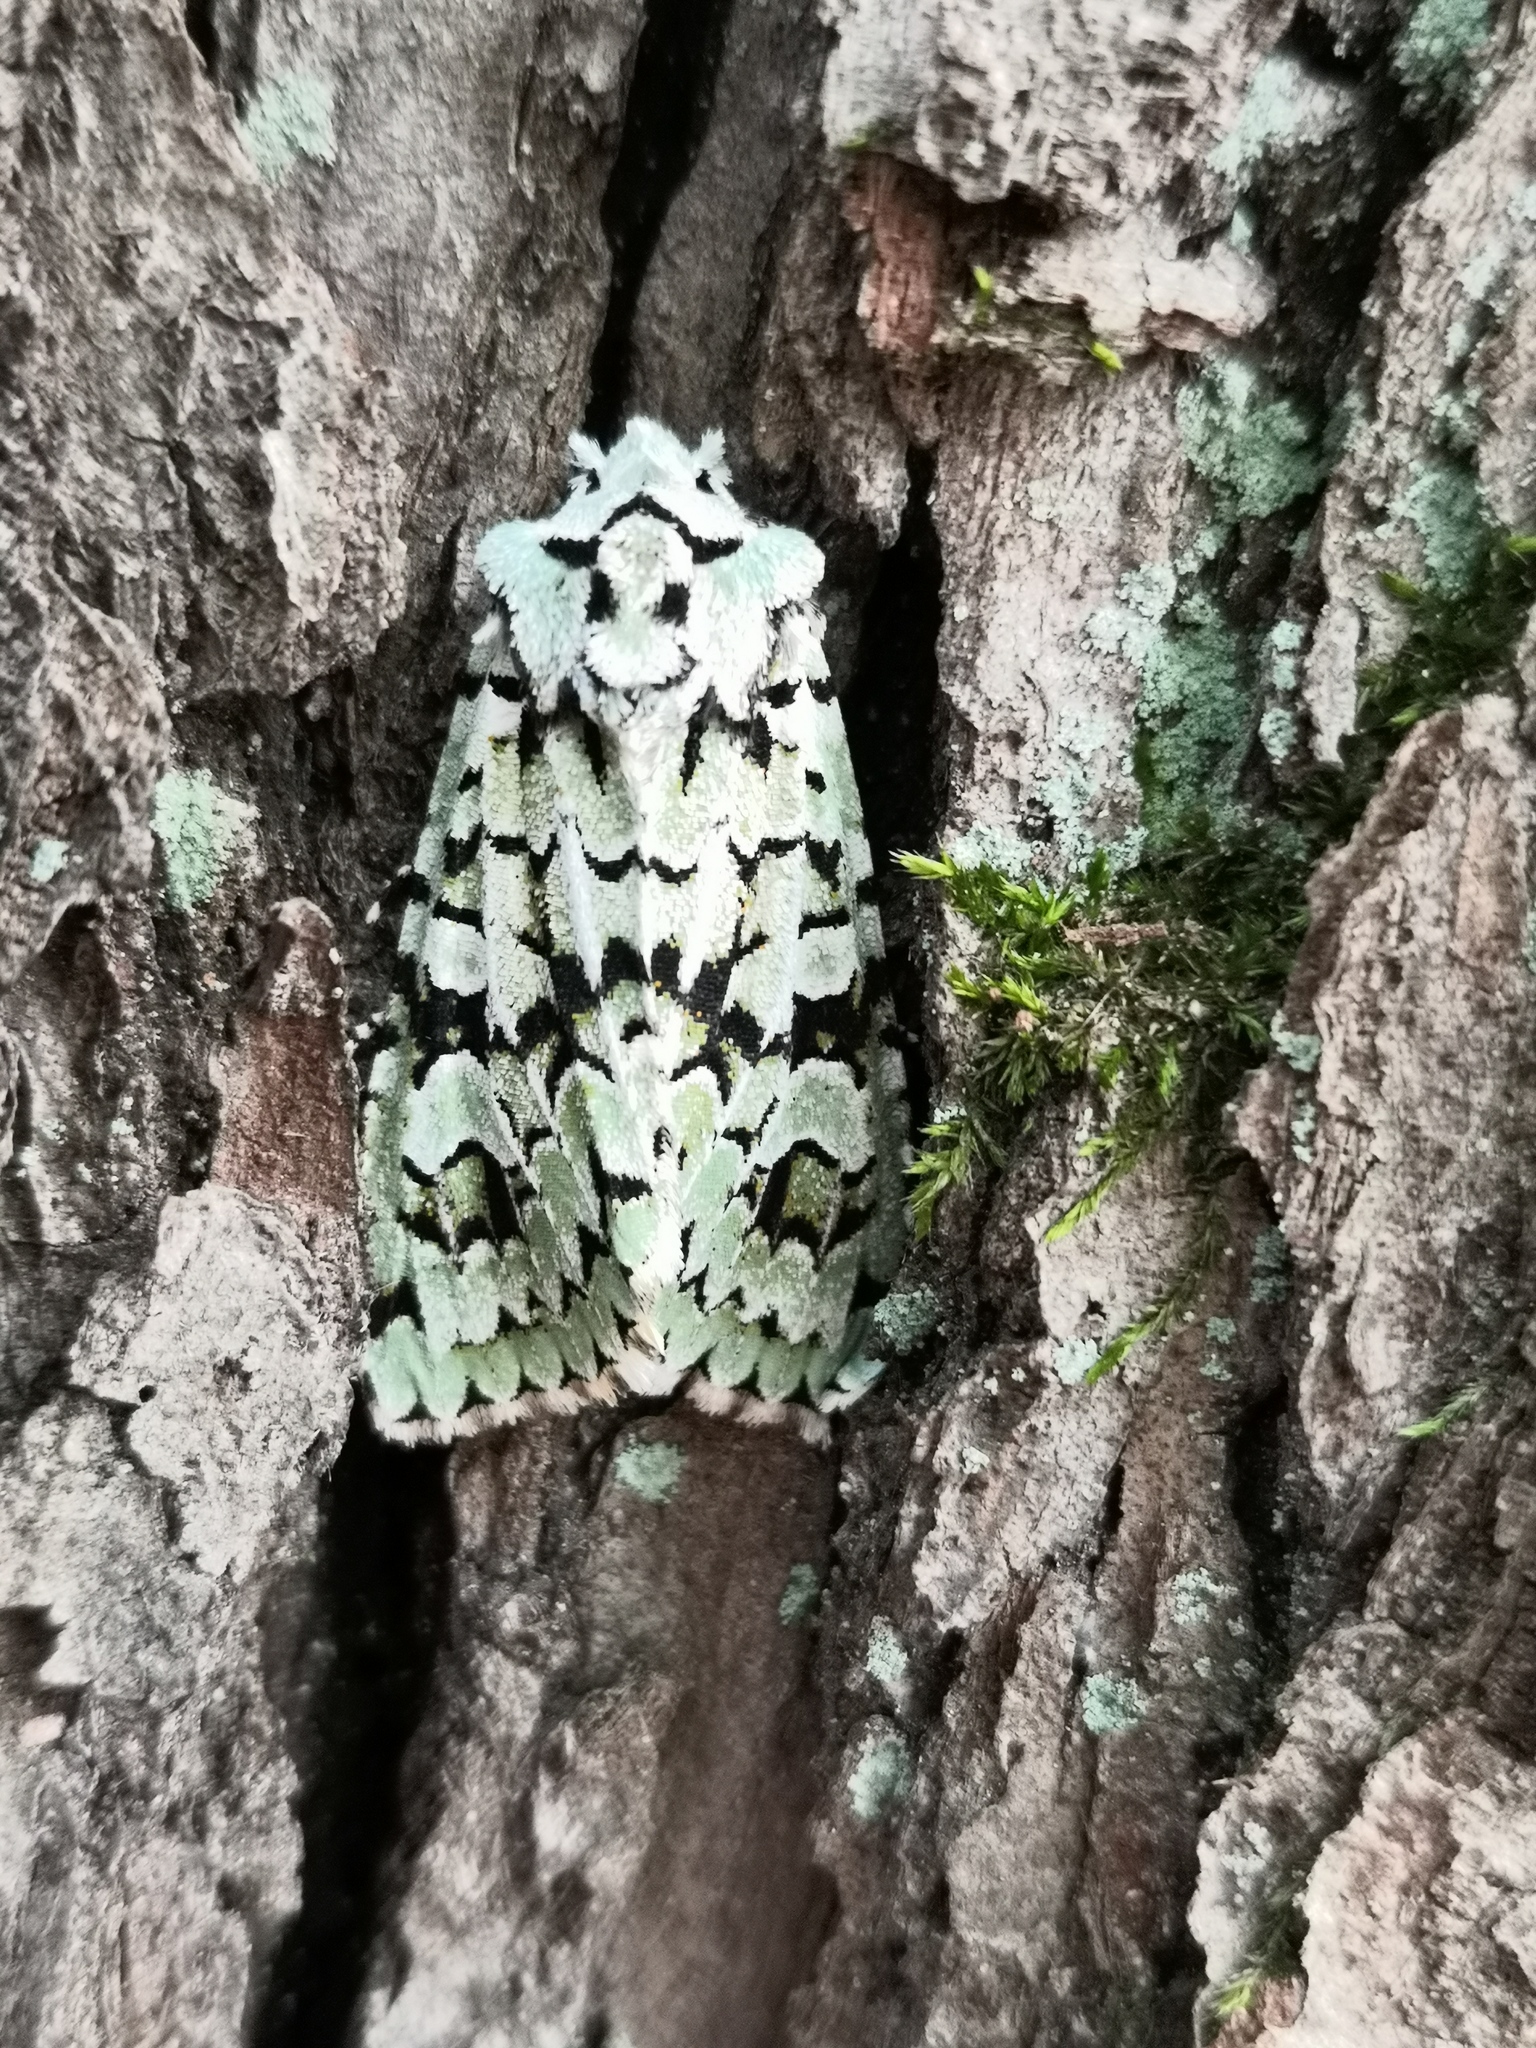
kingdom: Animalia
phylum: Arthropoda
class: Insecta
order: Lepidoptera
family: Noctuidae
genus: Griposia
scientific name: Griposia aprilina
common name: Merveille du jour
